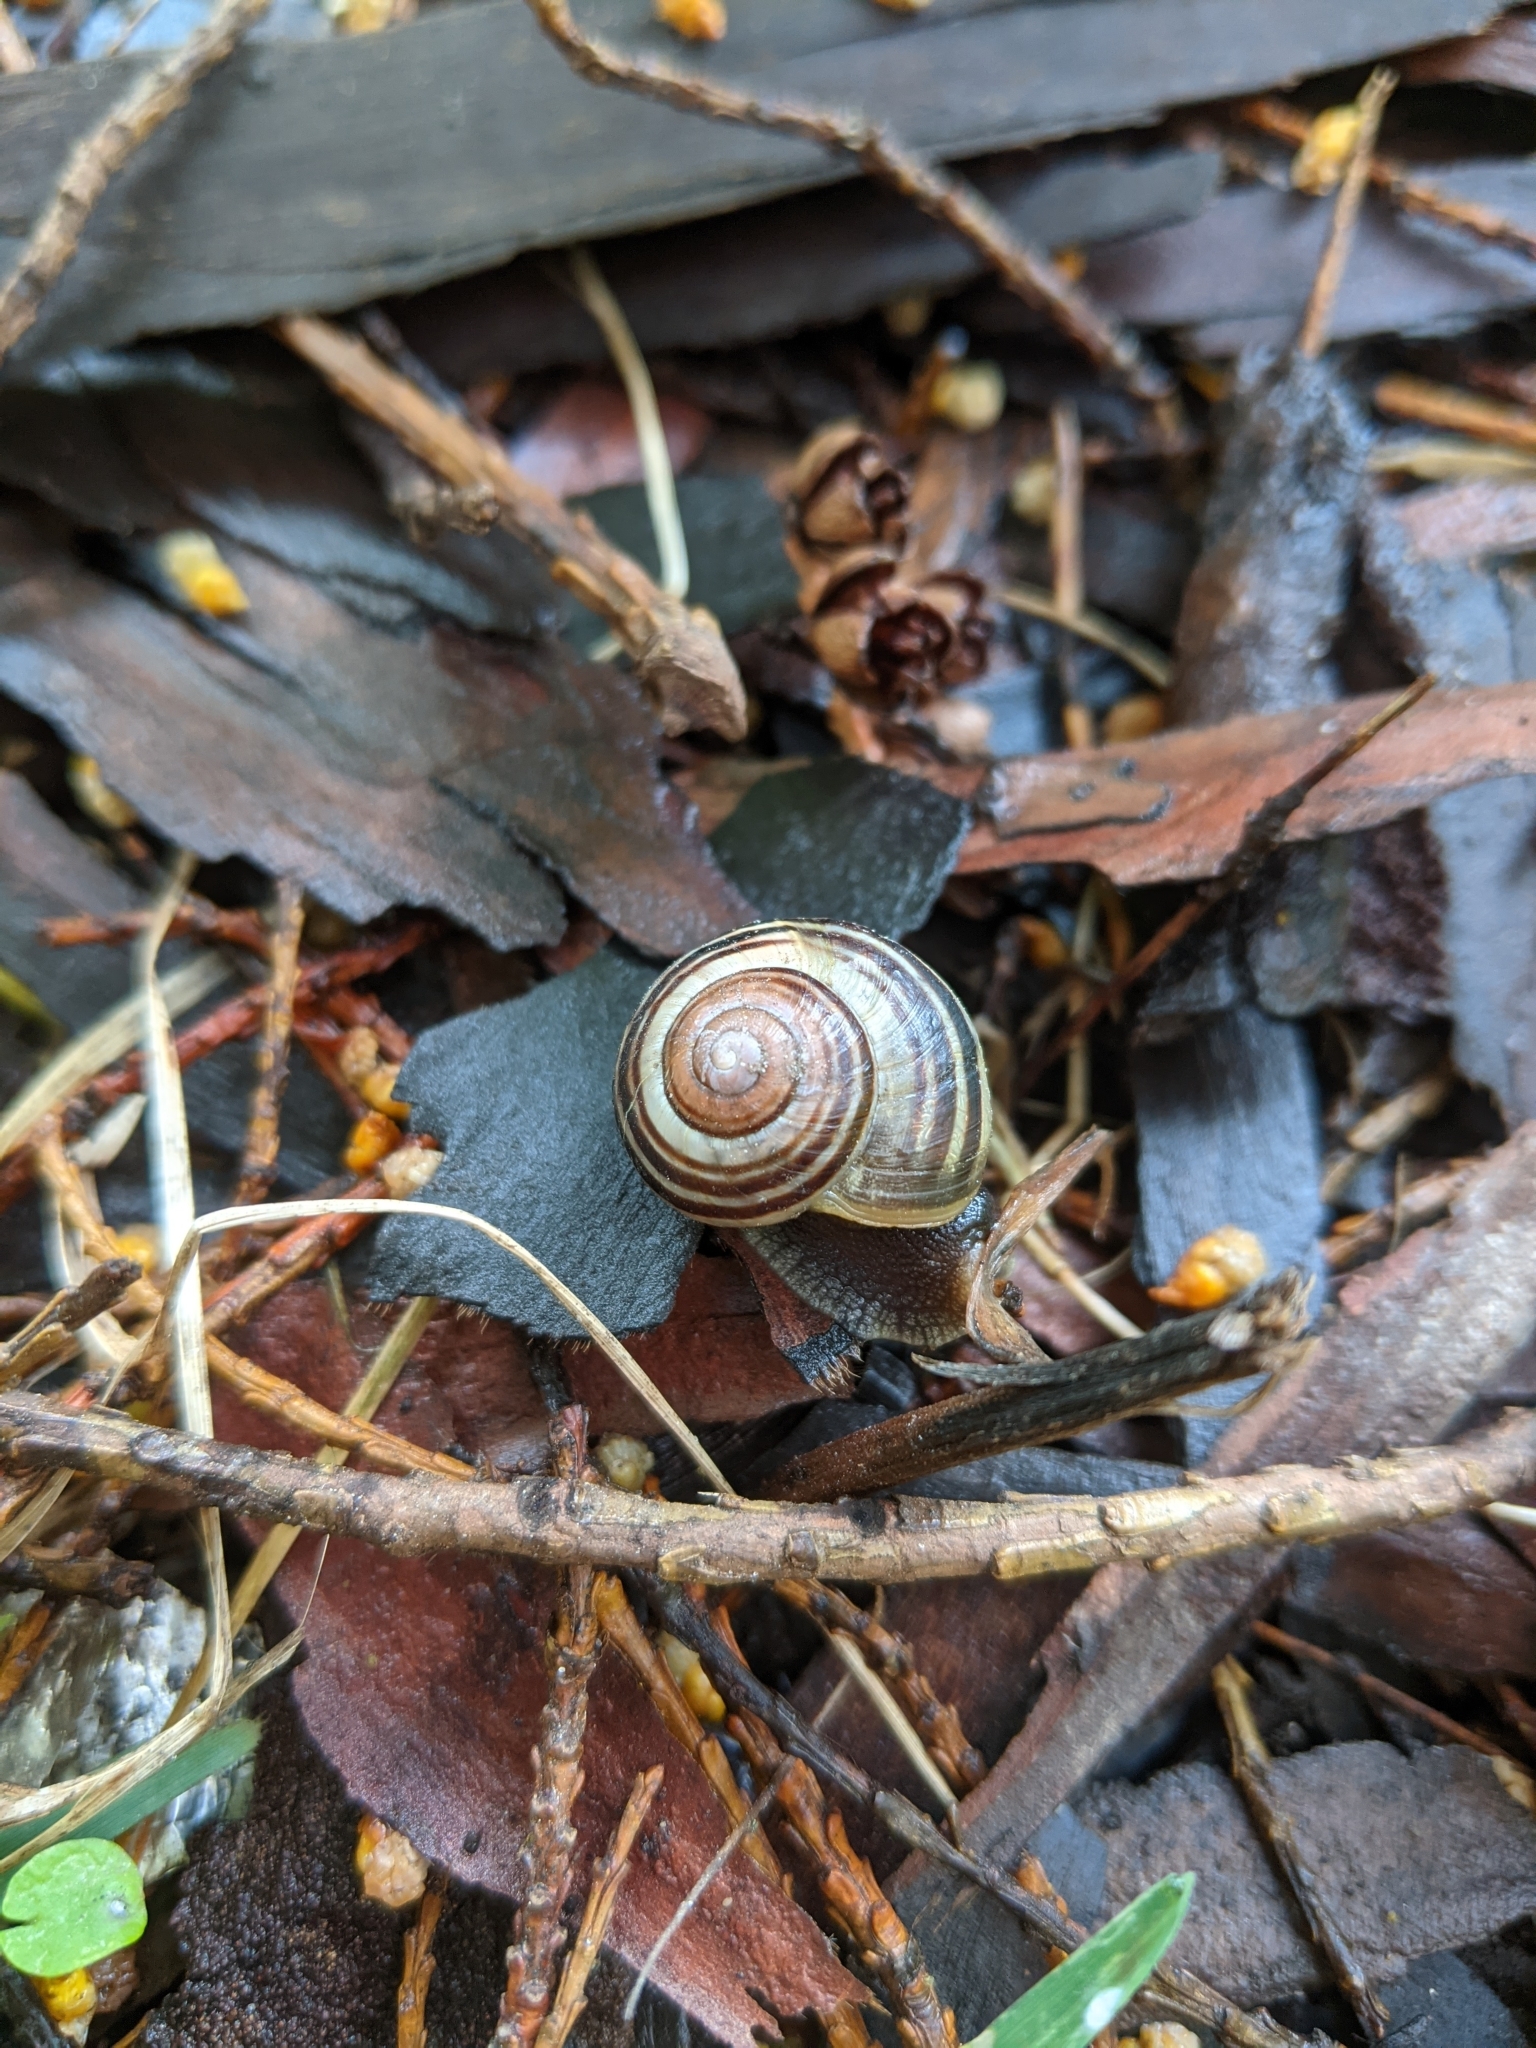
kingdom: Animalia
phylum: Mollusca
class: Gastropoda
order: Stylommatophora
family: Helicidae
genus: Cepaea
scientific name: Cepaea
